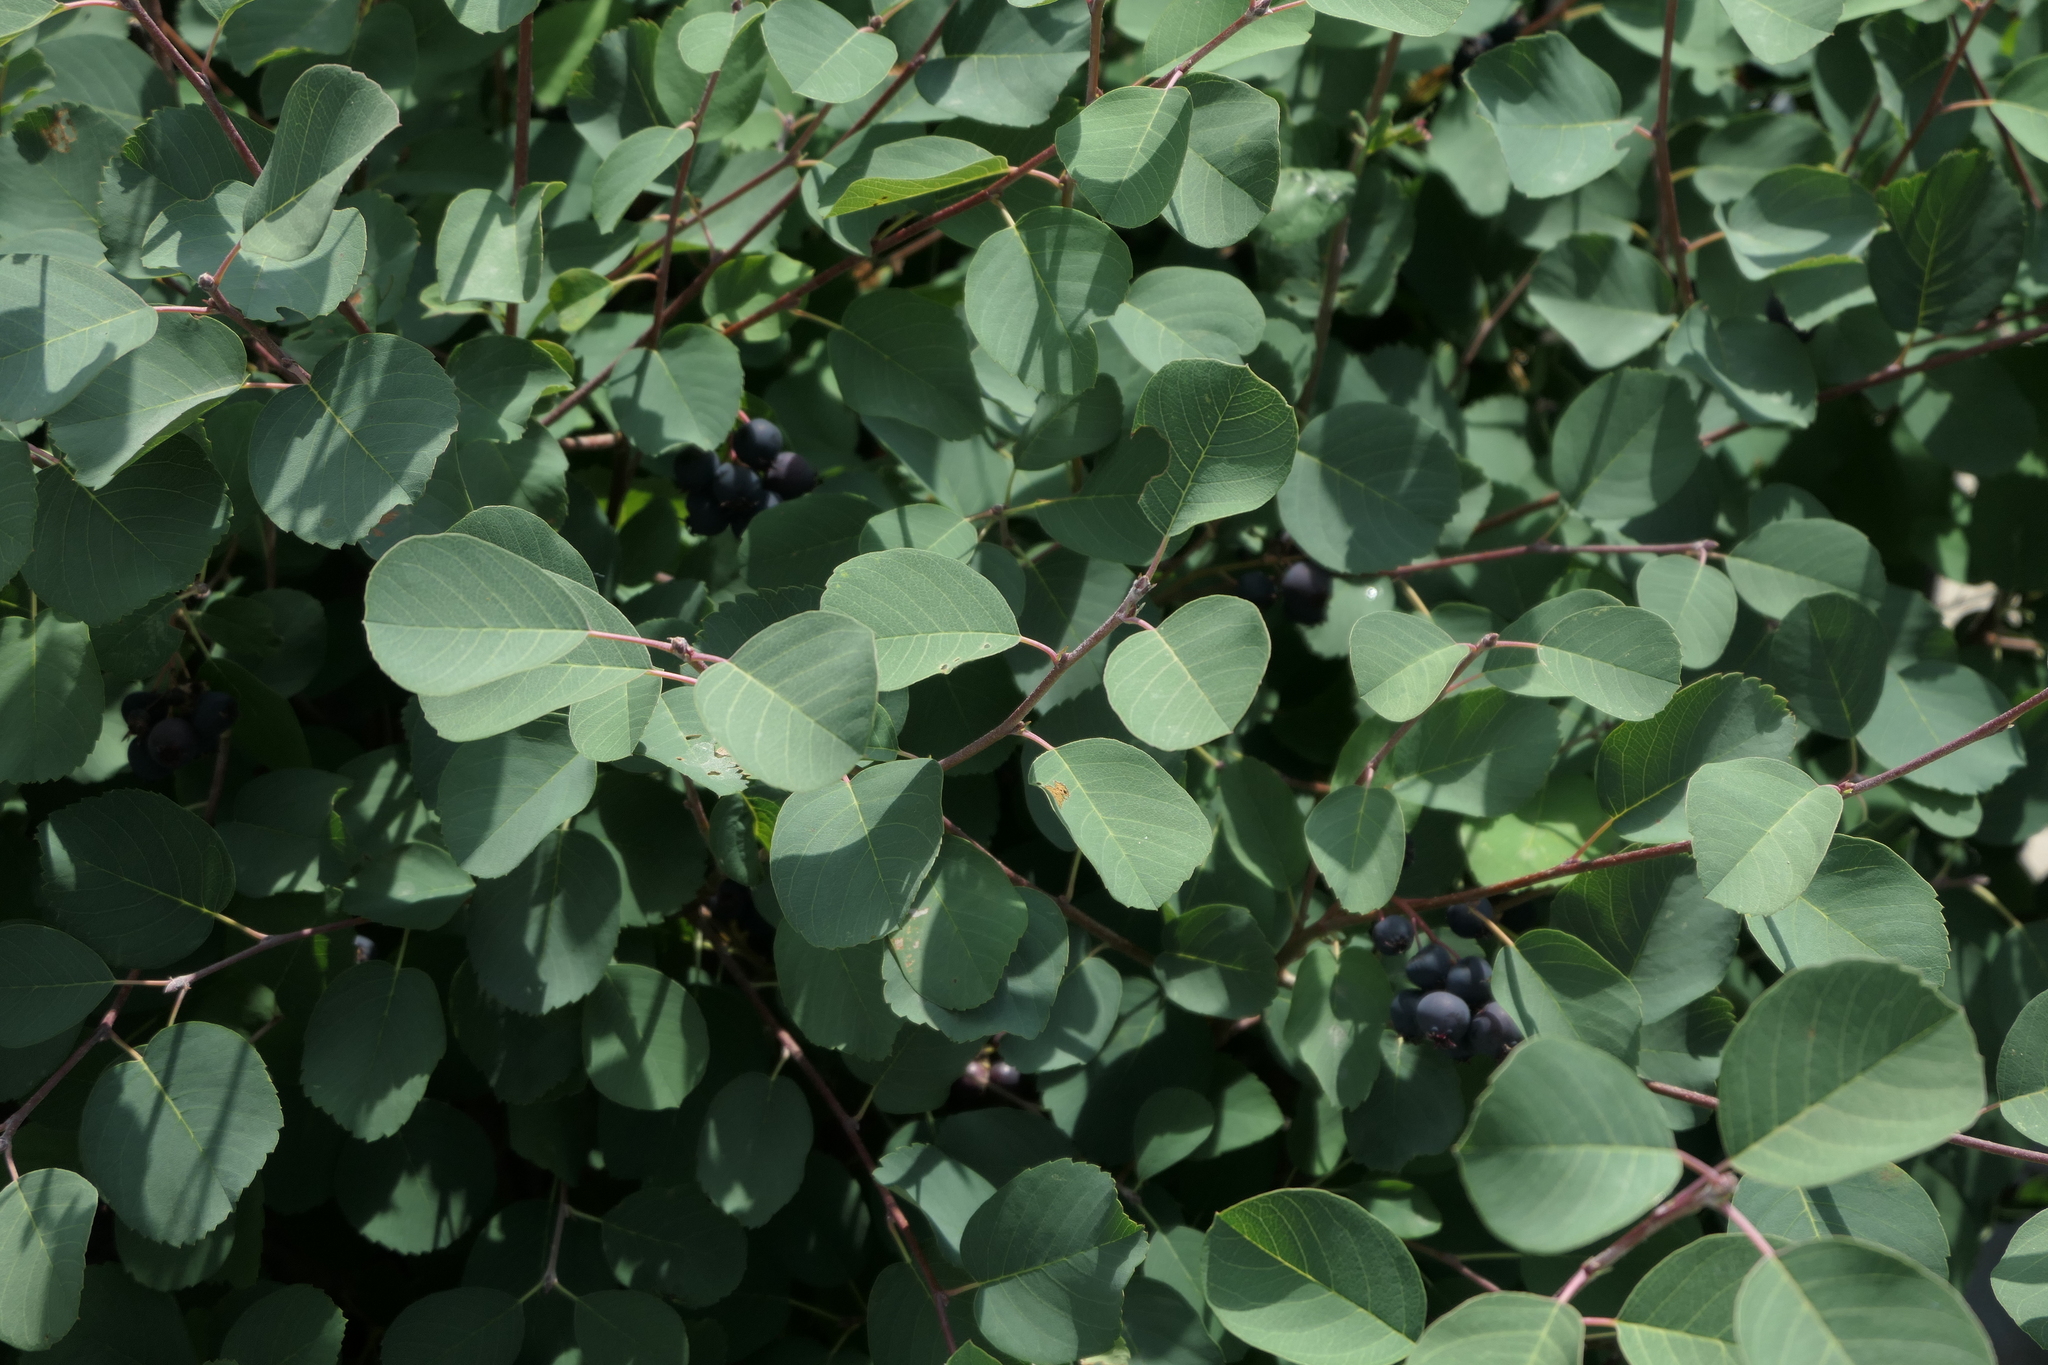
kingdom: Plantae
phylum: Tracheophyta
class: Magnoliopsida
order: Rosales
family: Rosaceae
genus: Amelanchier
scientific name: Amelanchier ovalis
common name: Serviceberry
